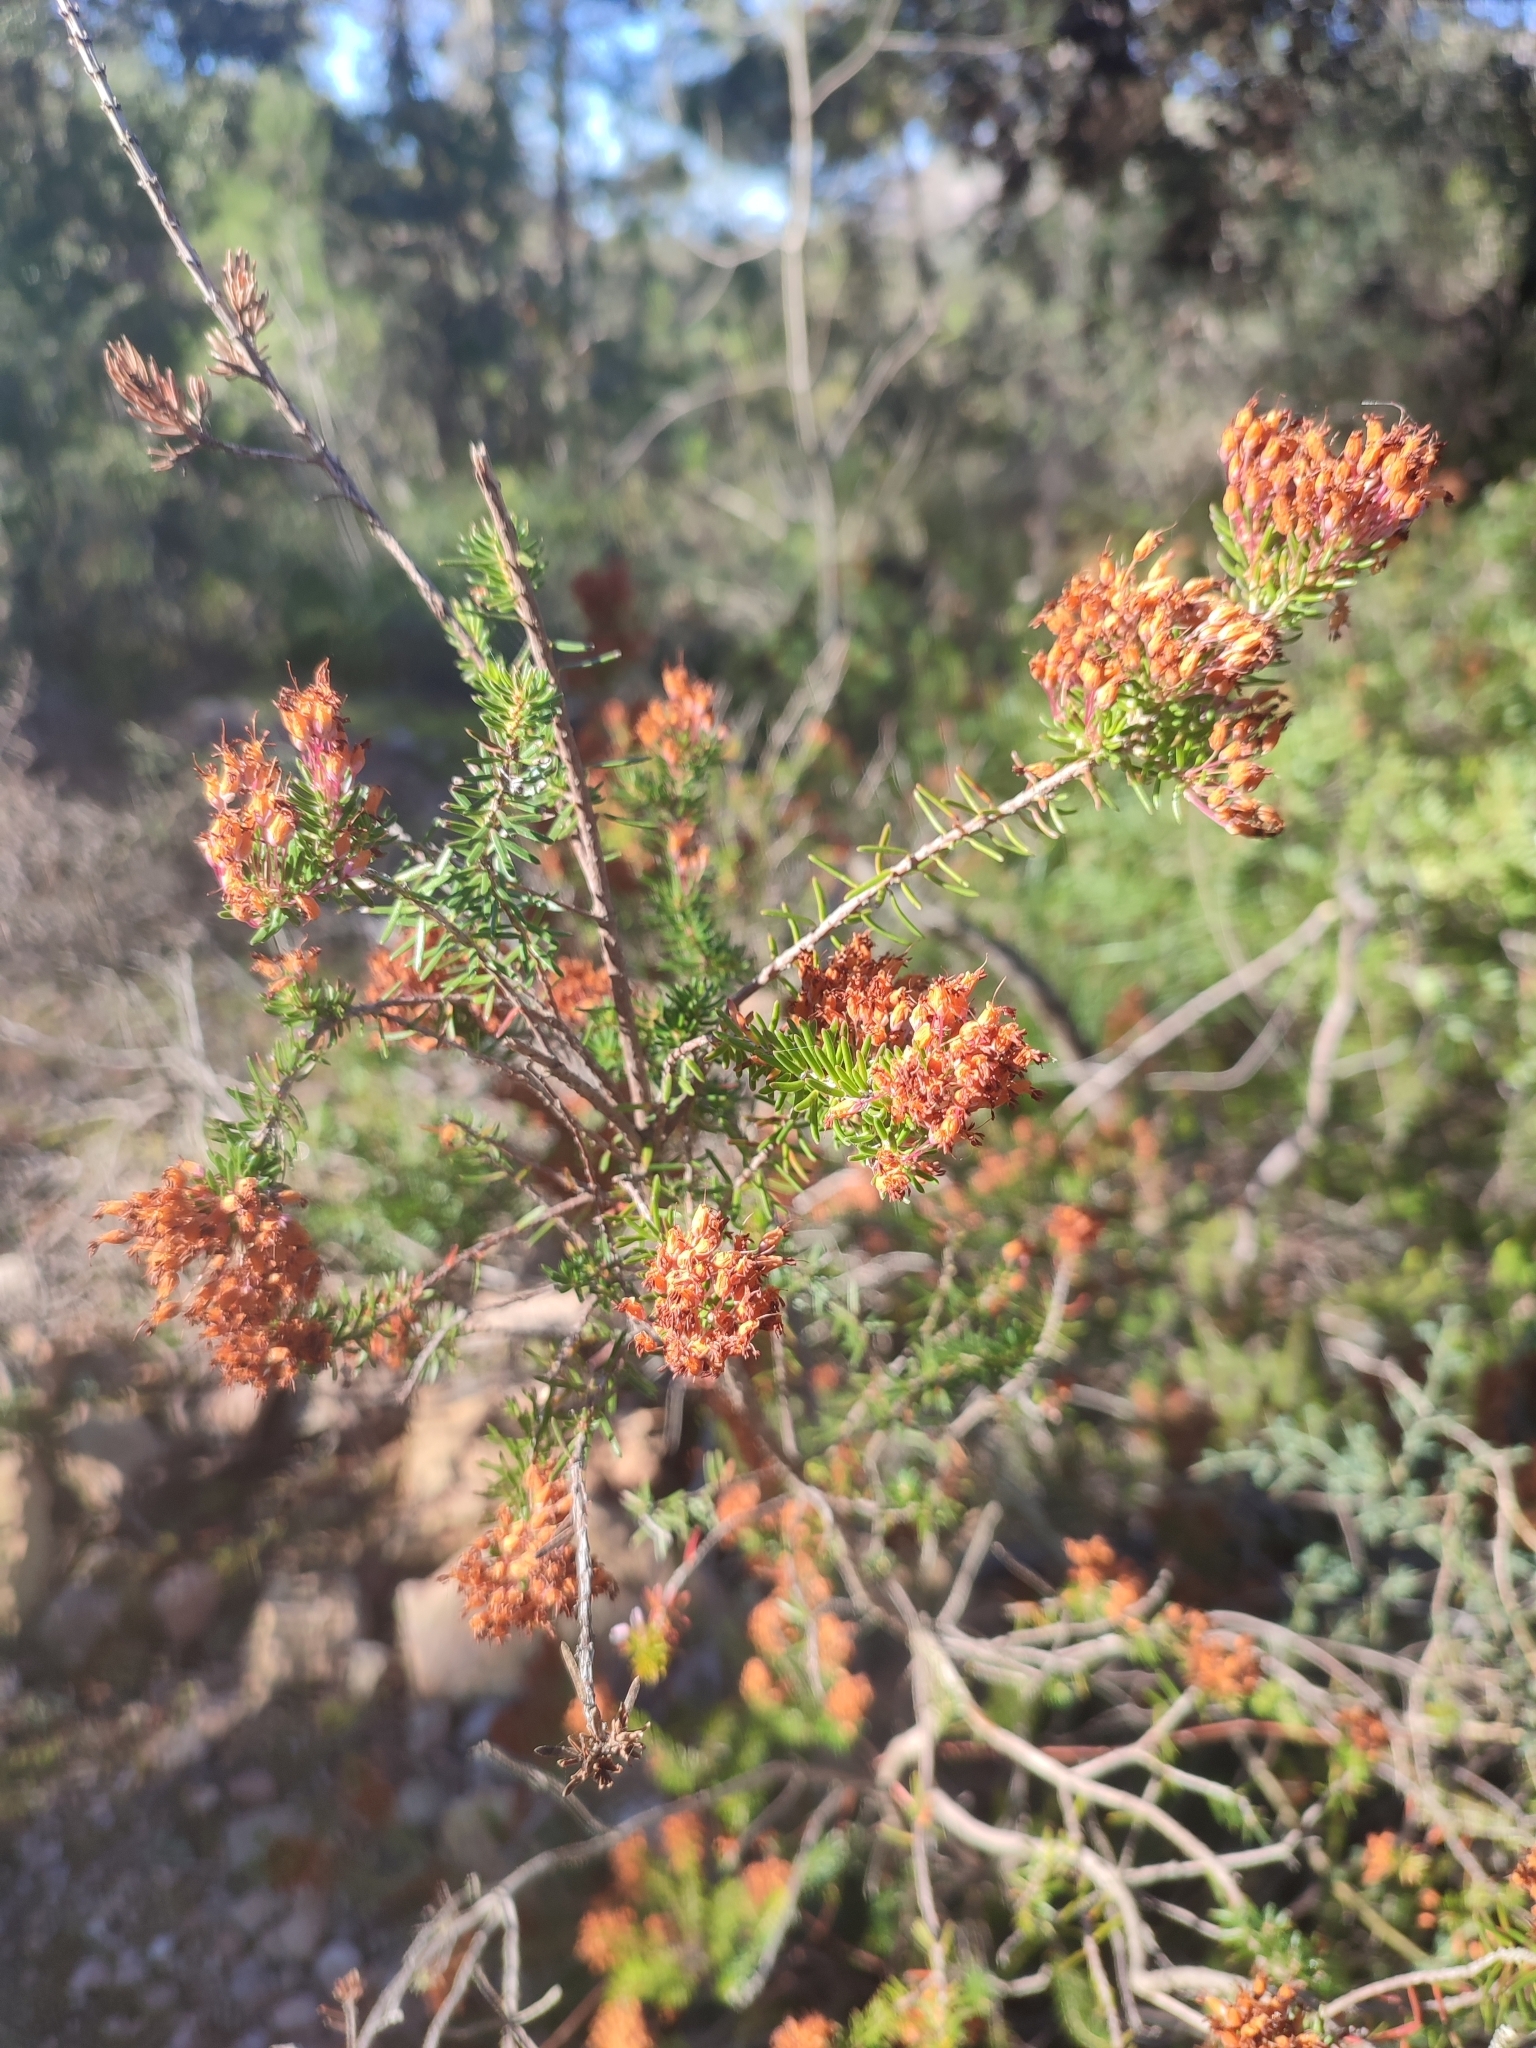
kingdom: Plantae
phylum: Tracheophyta
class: Magnoliopsida
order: Ericales
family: Ericaceae
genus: Erica
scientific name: Erica multiflora
